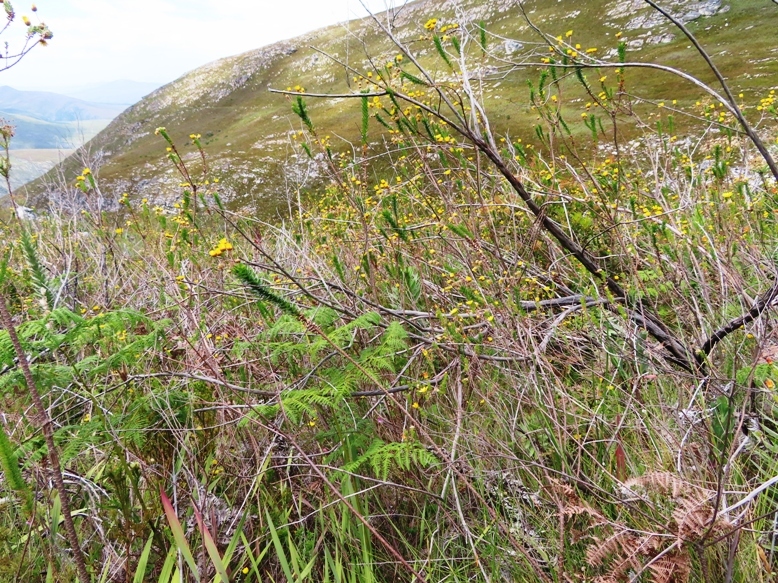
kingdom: Plantae
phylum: Tracheophyta
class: Magnoliopsida
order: Asterales
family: Asteraceae
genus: Ursinia
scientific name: Ursinia serrata
